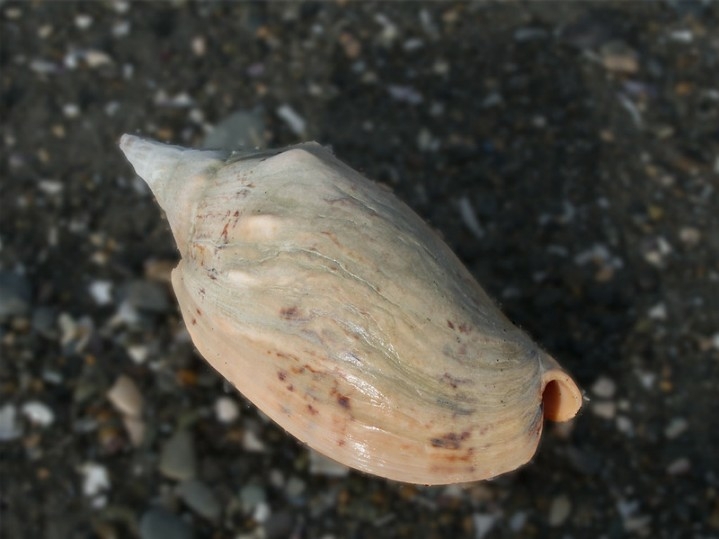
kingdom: Animalia
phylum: Mollusca
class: Gastropoda
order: Neogastropoda
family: Volutidae
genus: Alcithoe
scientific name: Alcithoe arabica
